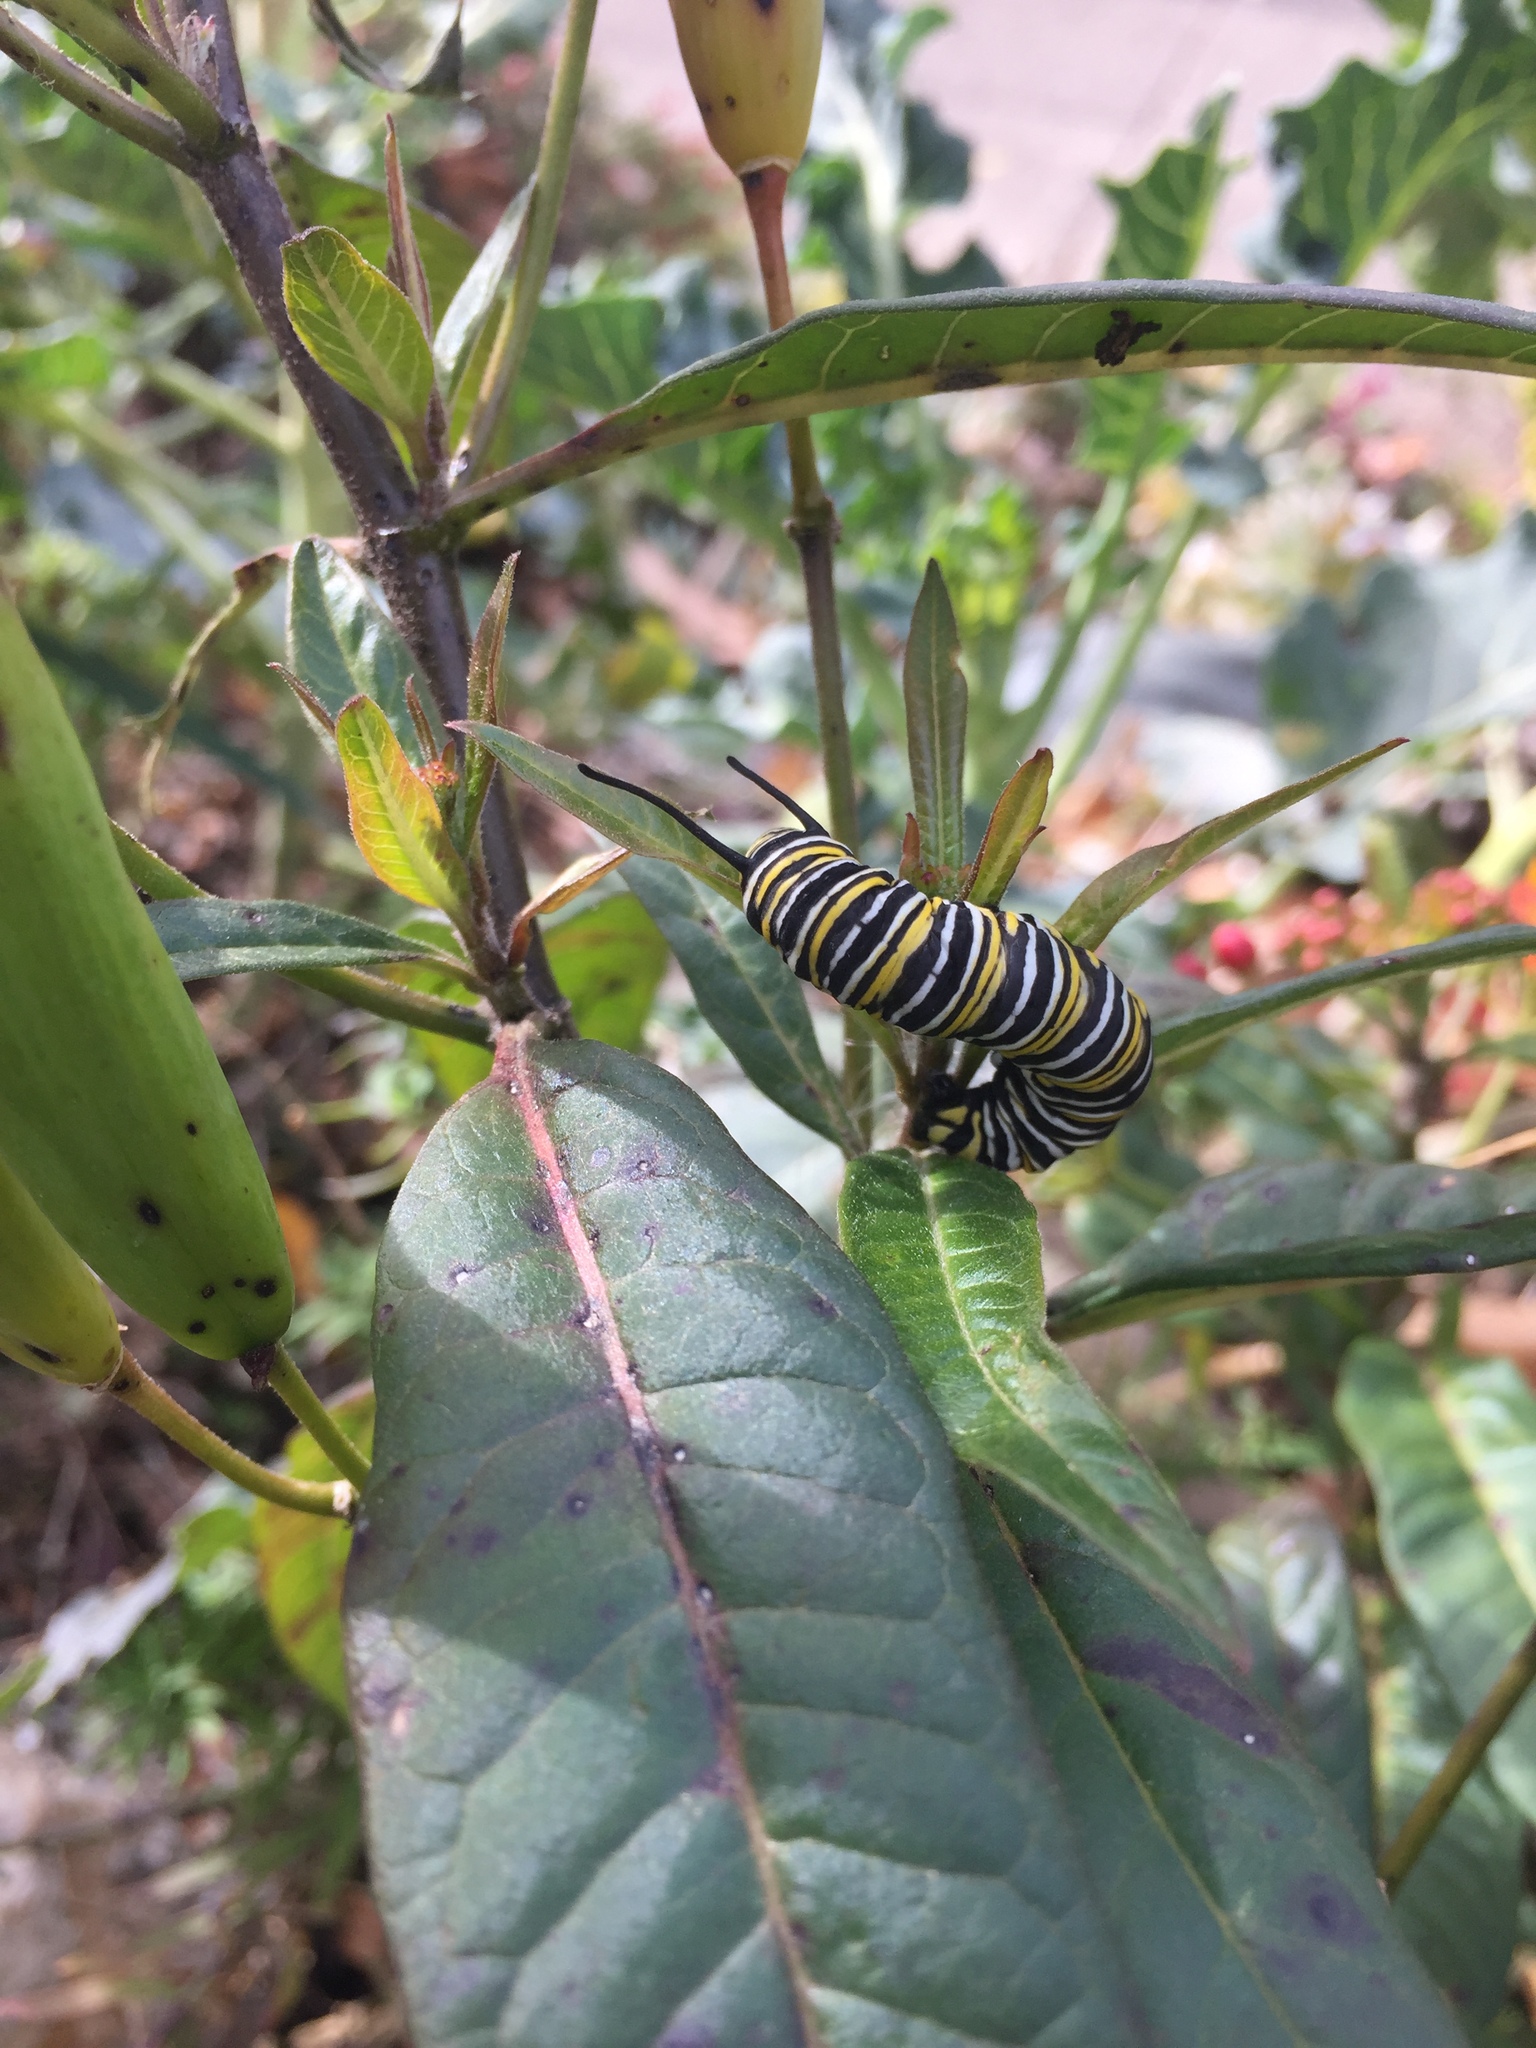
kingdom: Animalia
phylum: Arthropoda
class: Insecta
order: Lepidoptera
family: Nymphalidae
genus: Danaus
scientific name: Danaus plexippus
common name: Monarch
